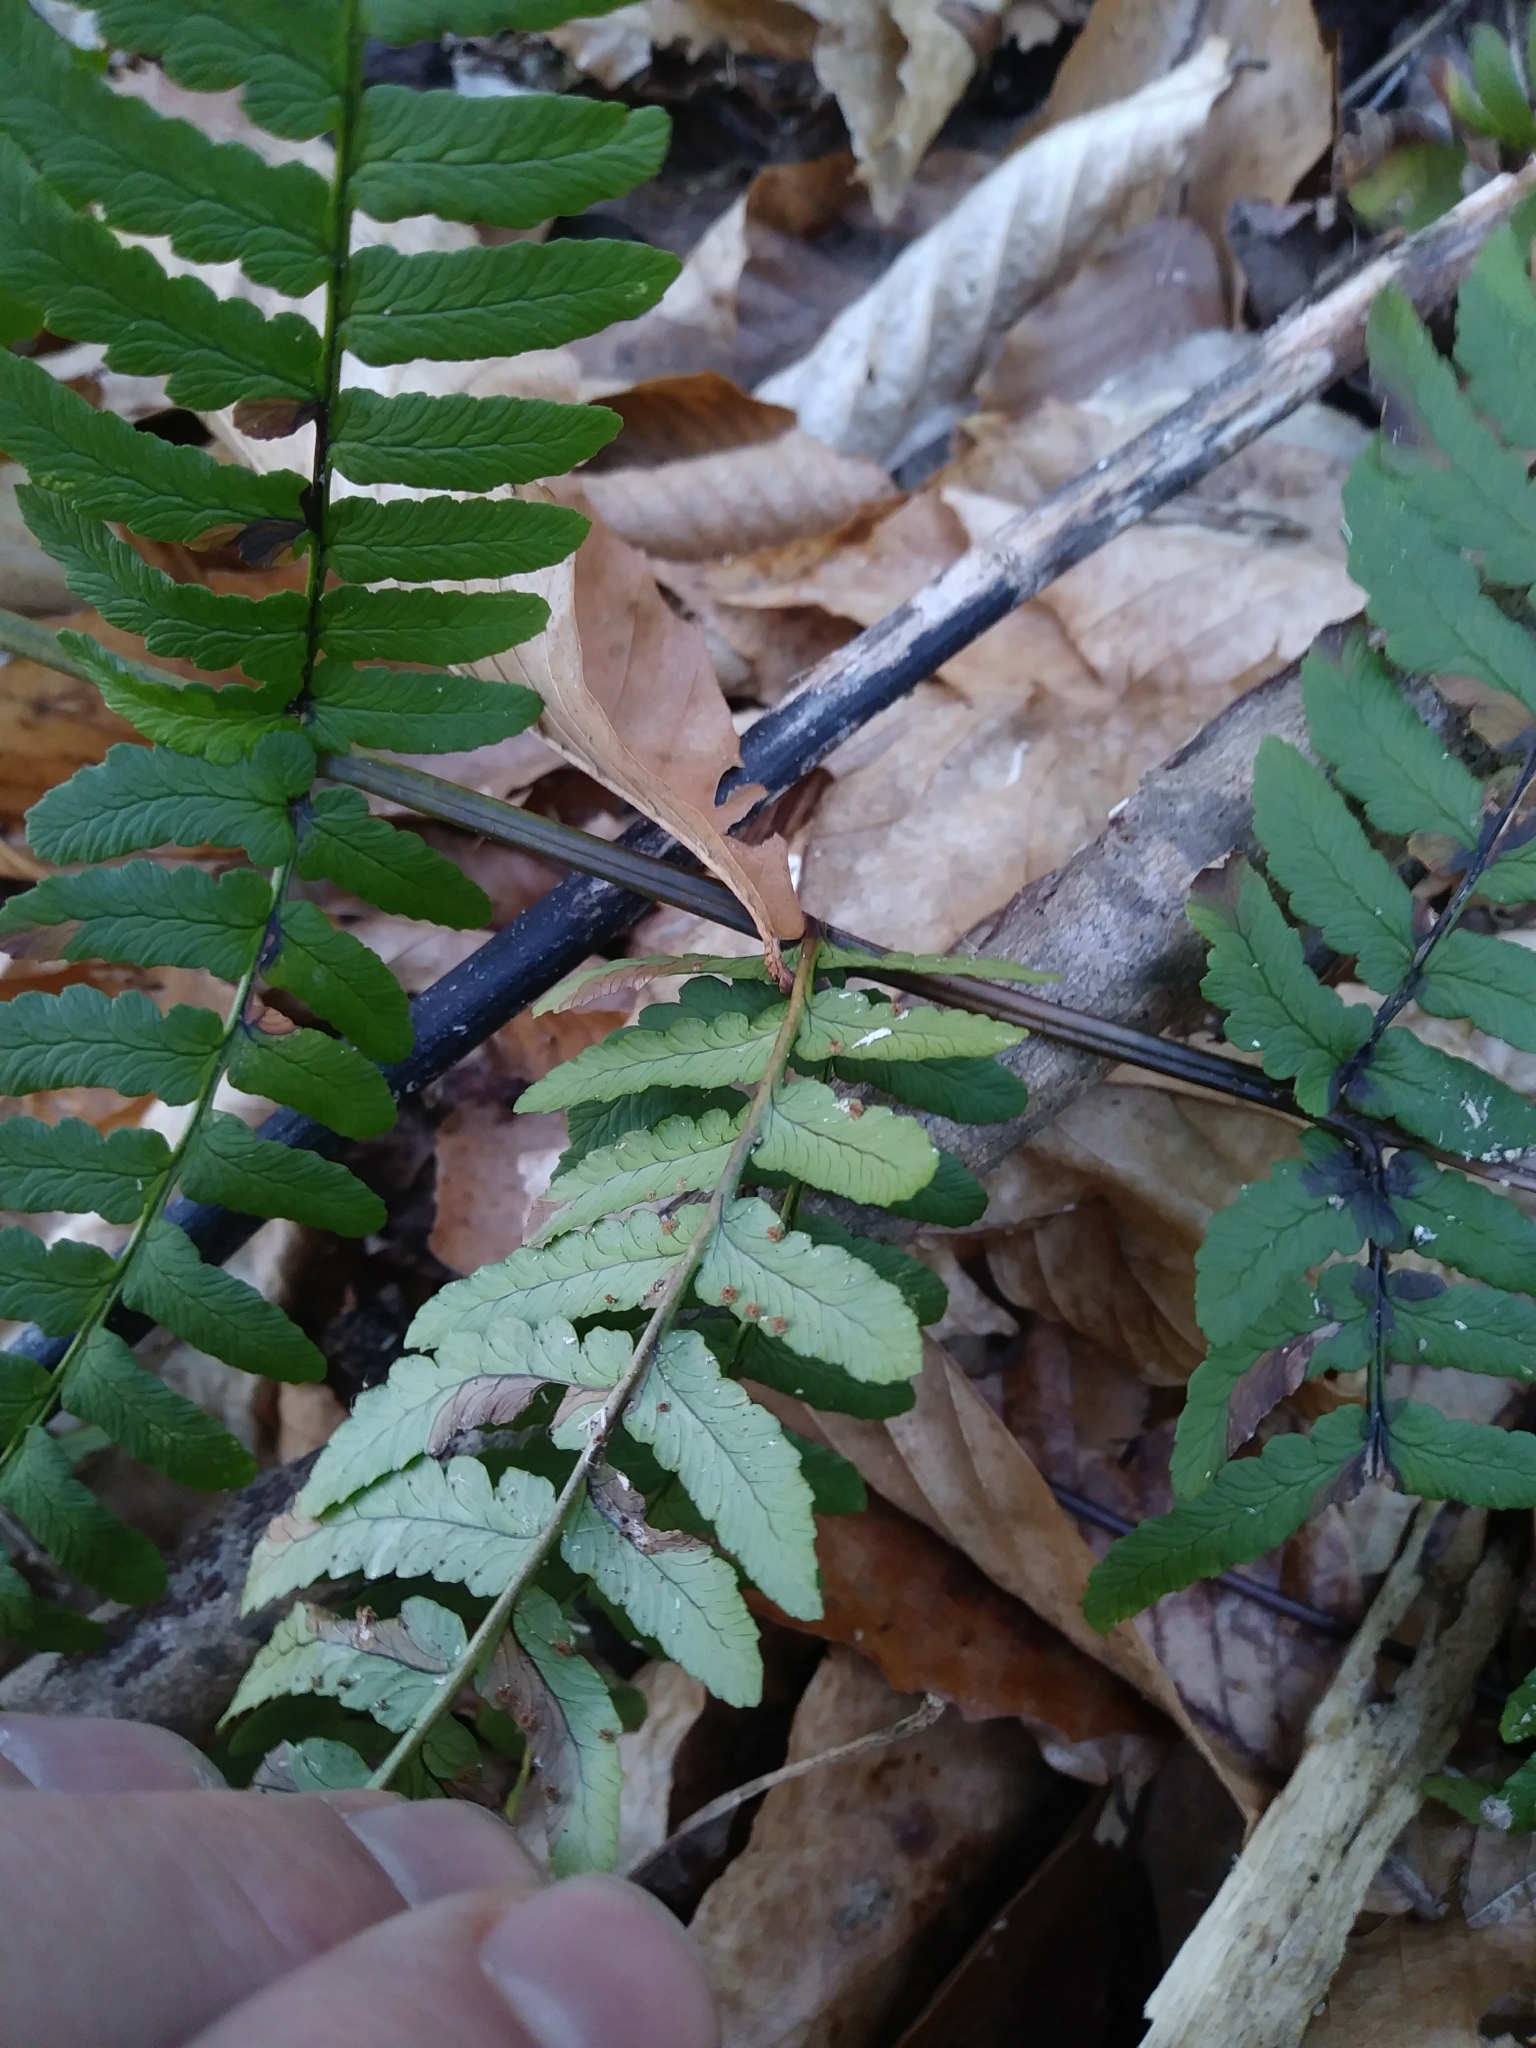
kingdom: Plantae
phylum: Tracheophyta
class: Polypodiopsida
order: Polypodiales
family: Dryopteridaceae
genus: Dryopteris
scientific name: Dryopteris marginalis
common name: Marginal wood fern
